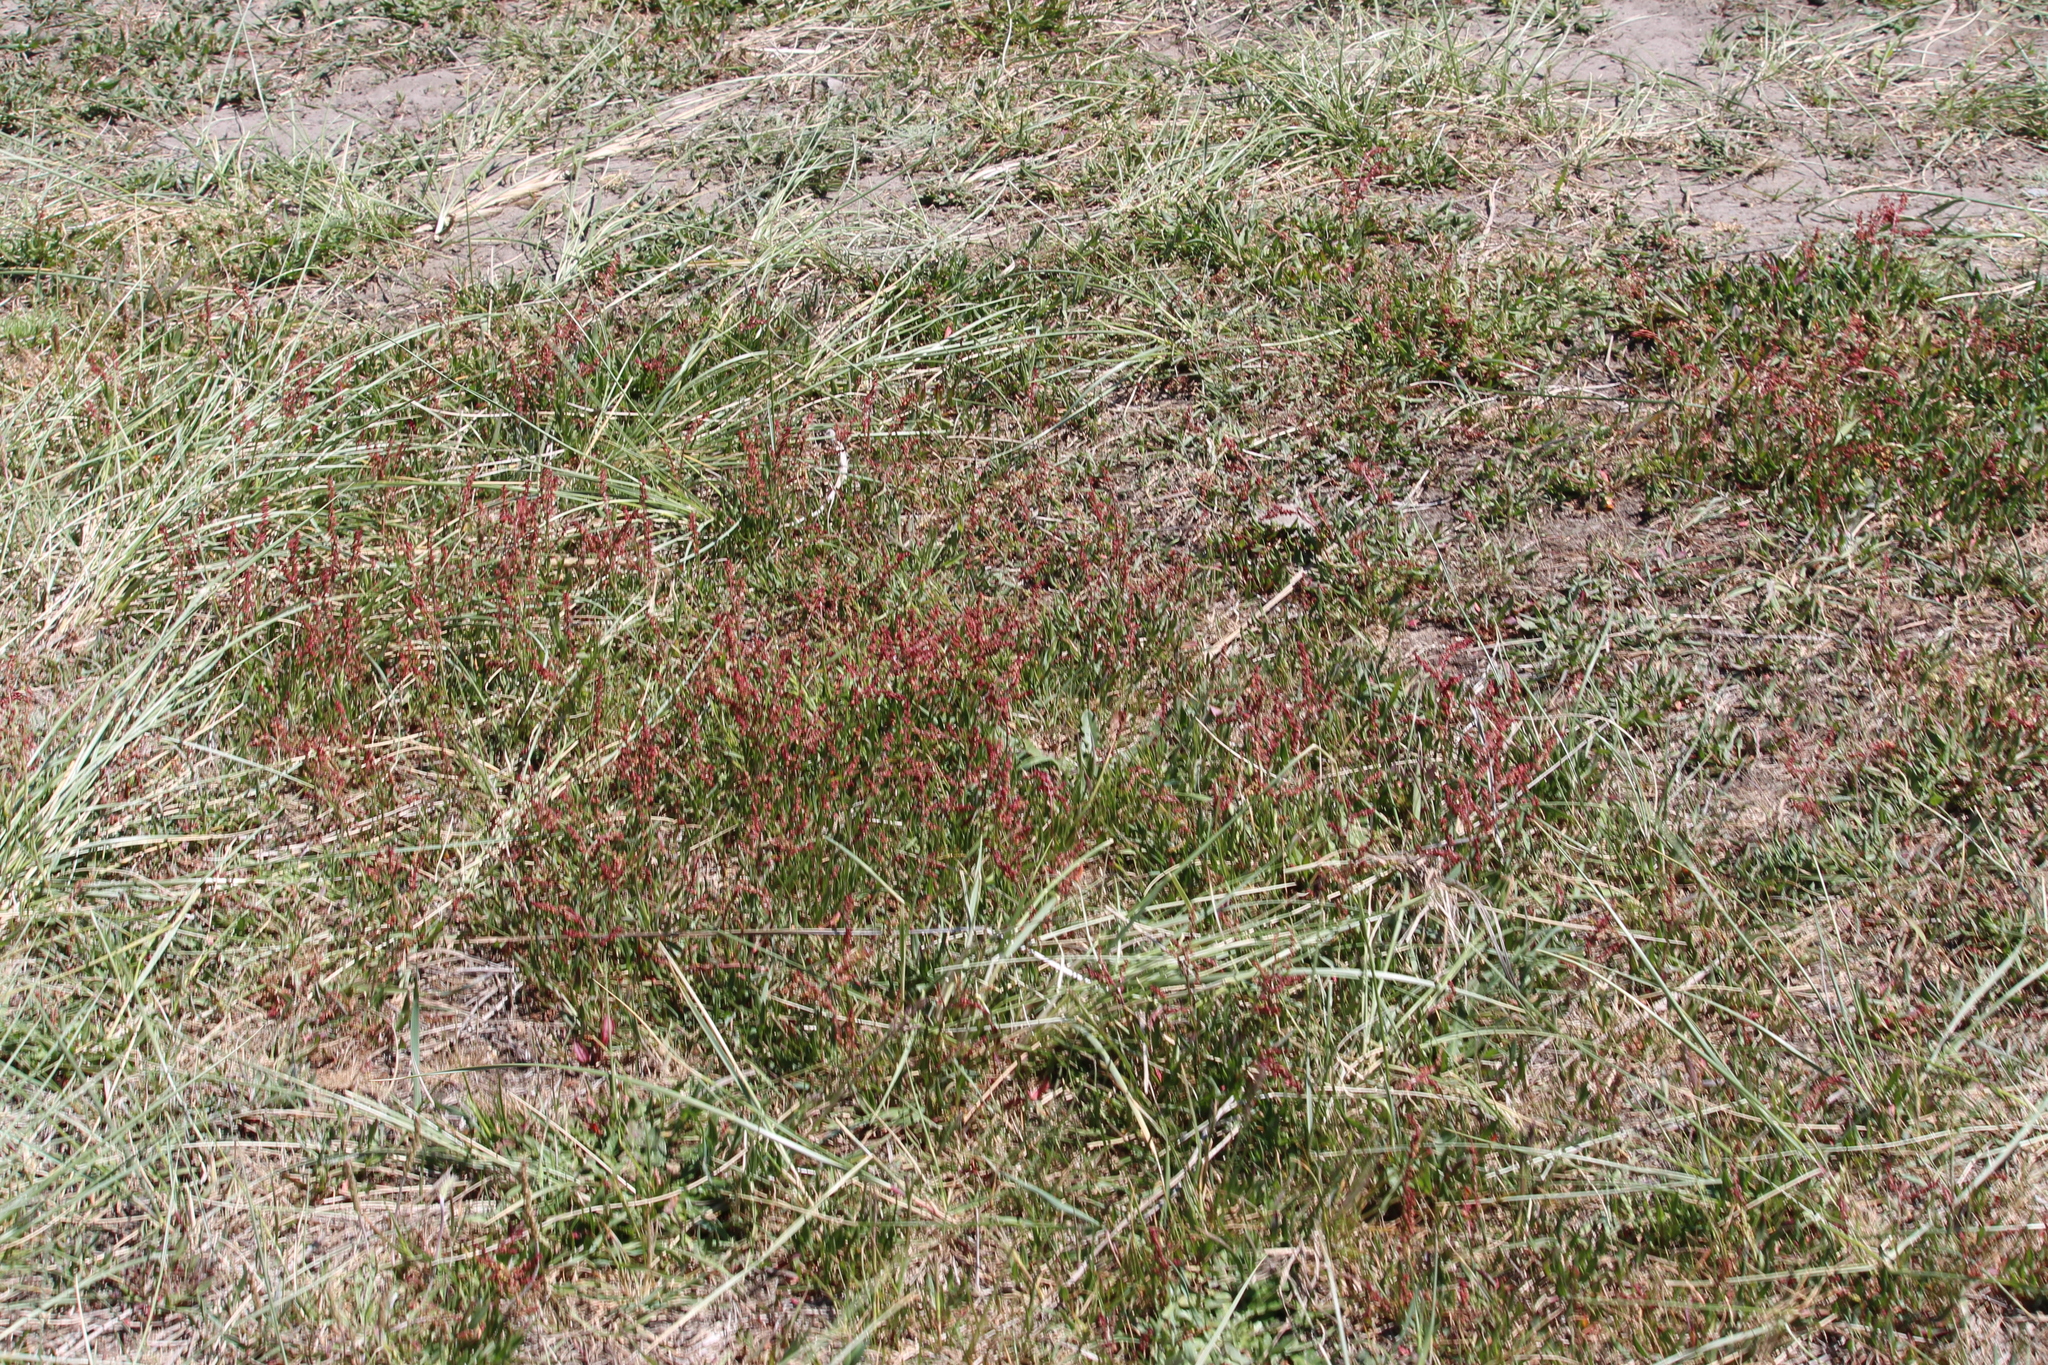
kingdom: Plantae
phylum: Tracheophyta
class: Magnoliopsida
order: Caryophyllales
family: Polygonaceae
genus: Rumex
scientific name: Rumex acetosella
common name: Common sheep sorrel
